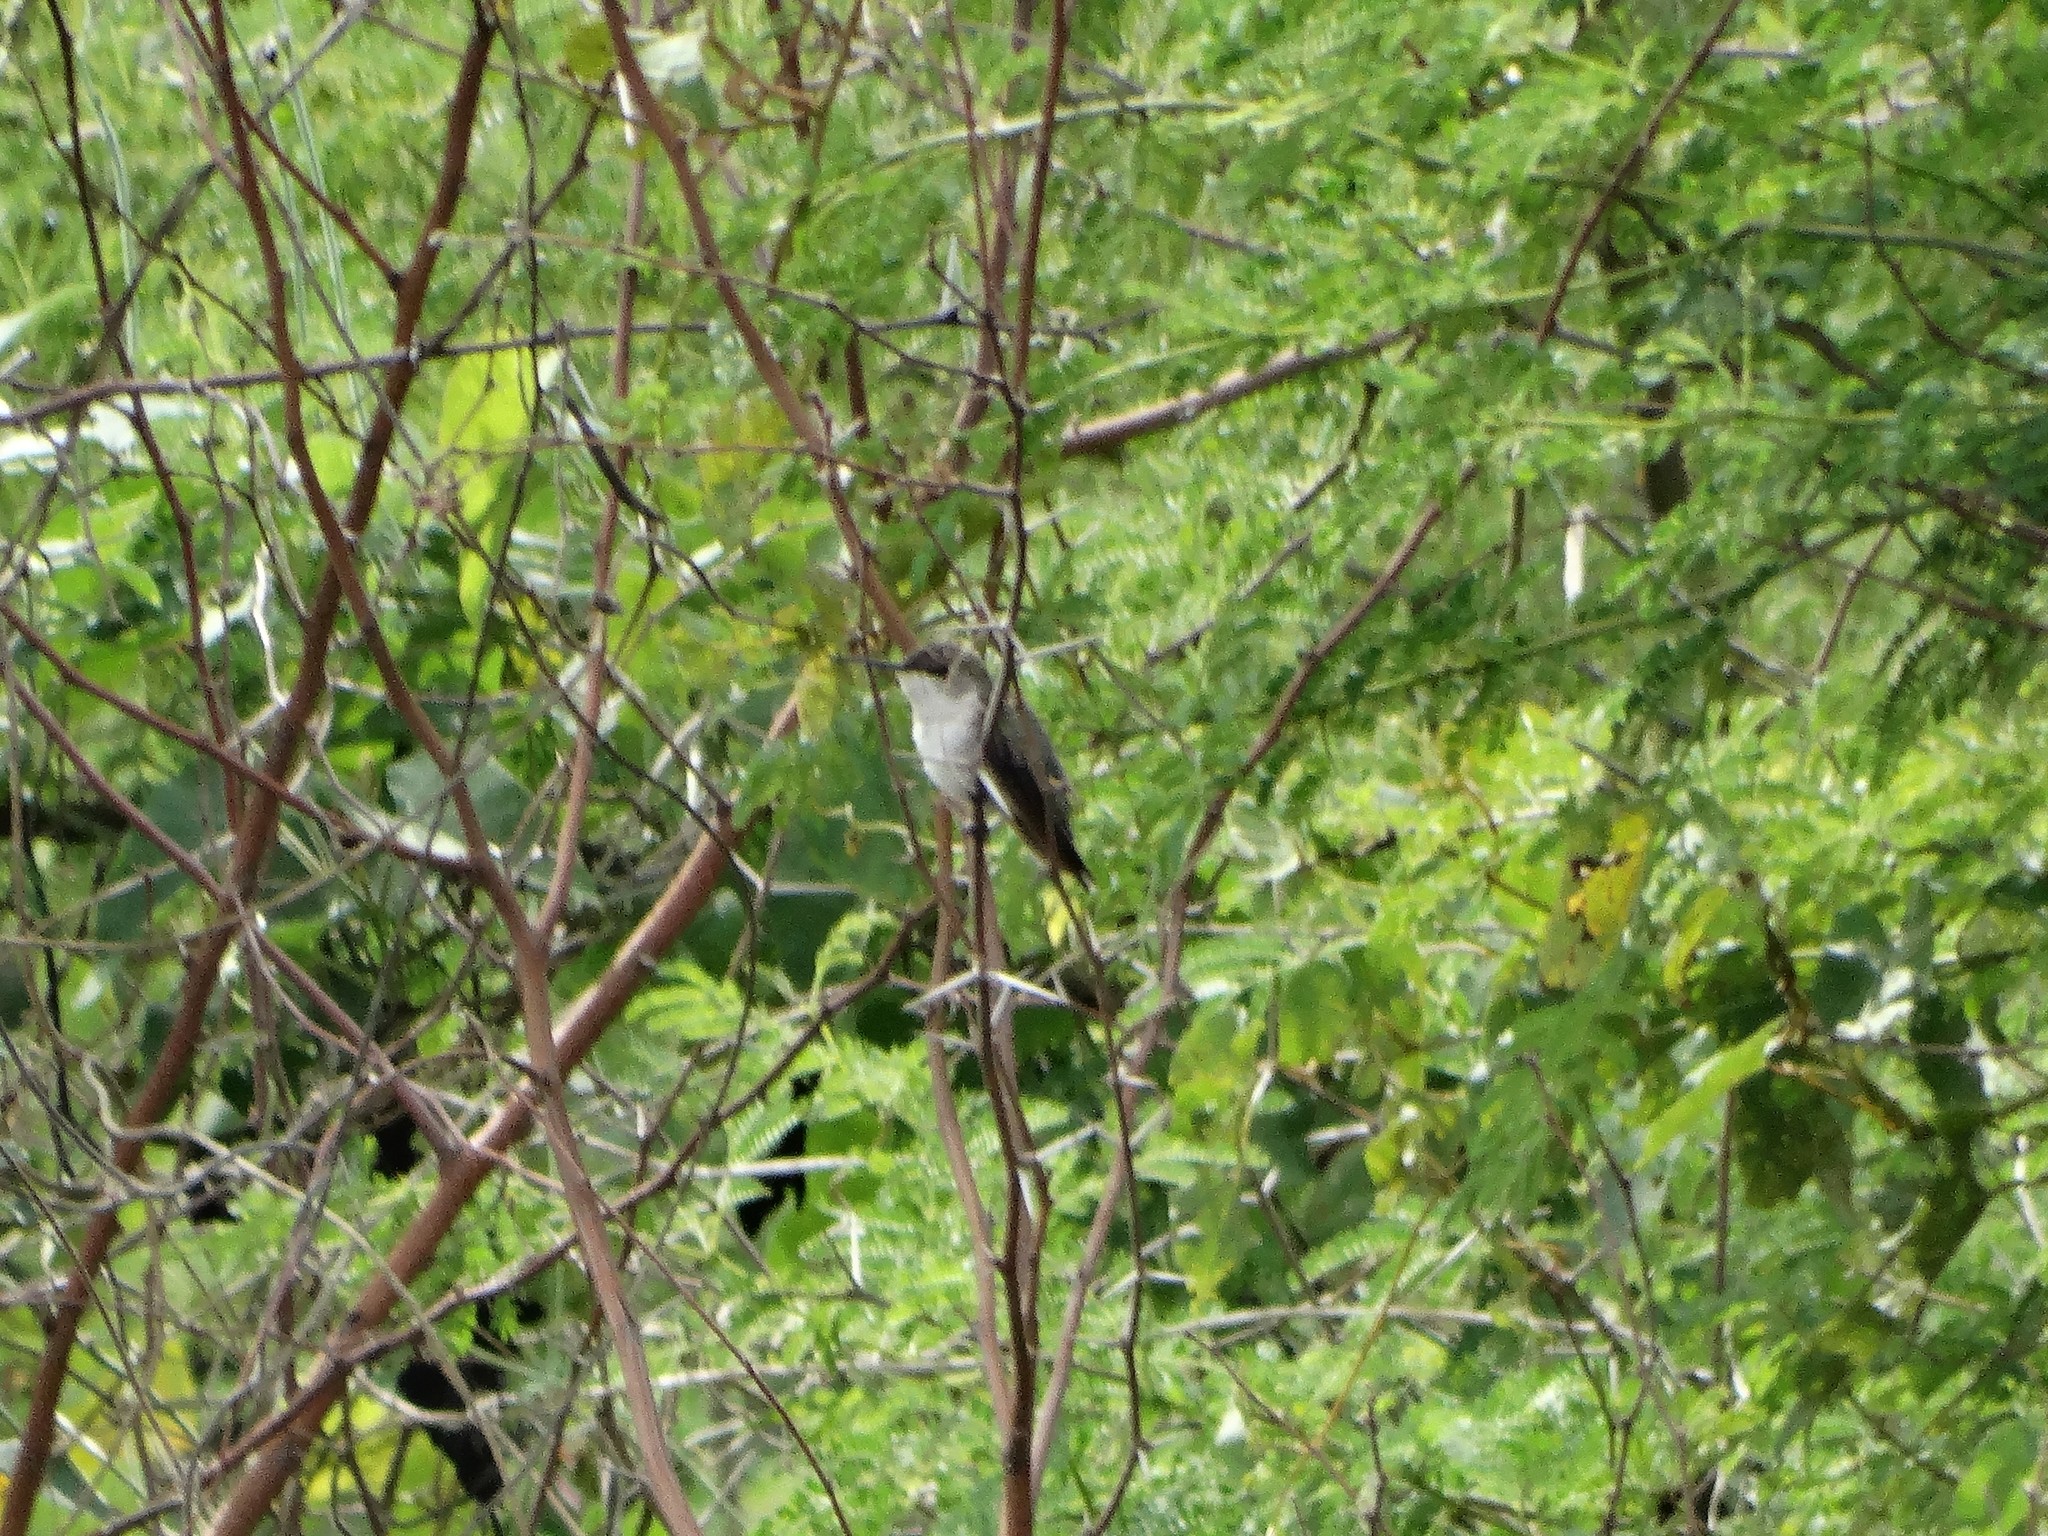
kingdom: Animalia
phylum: Chordata
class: Aves
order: Apodiformes
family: Trochilidae
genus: Archilochus
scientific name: Archilochus colubris
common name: Ruby-throated hummingbird
